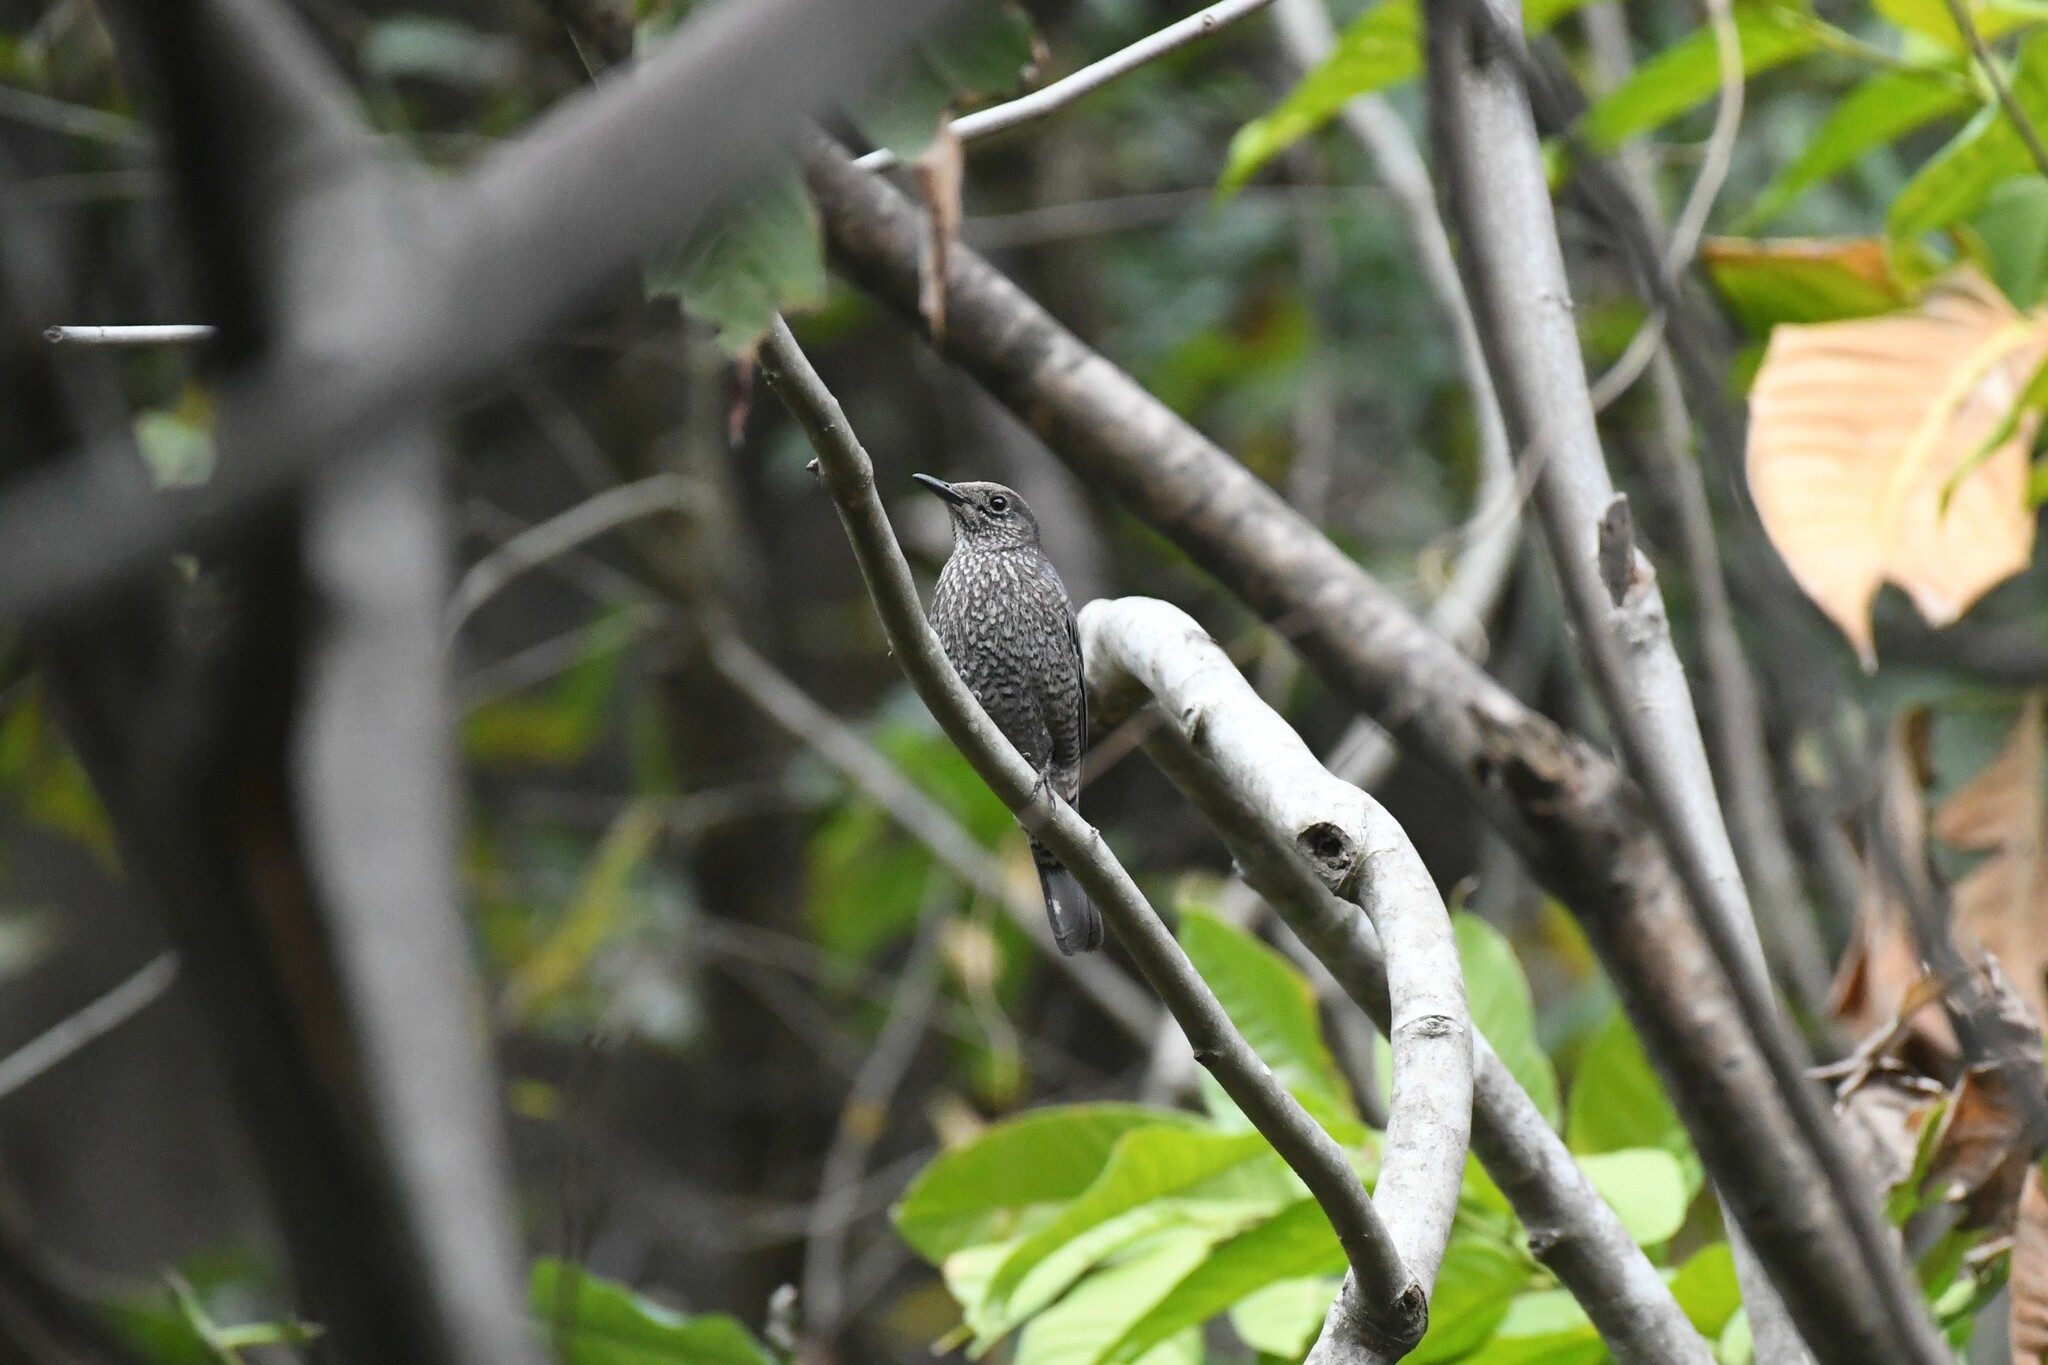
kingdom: Animalia
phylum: Chordata
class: Aves
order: Passeriformes
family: Muscicapidae
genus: Monticola
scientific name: Monticola solitarius
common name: Blue rock thrush
